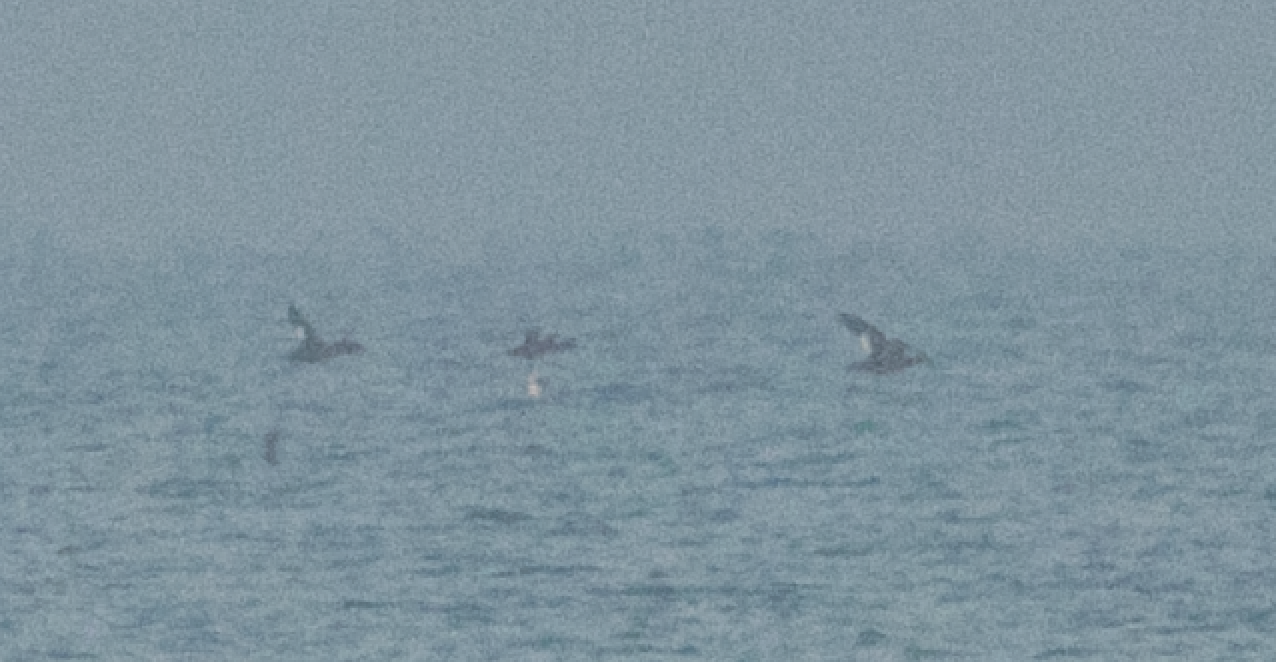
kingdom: Animalia
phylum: Chordata
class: Aves
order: Anseriformes
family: Anatidae
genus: Melanitta
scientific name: Melanitta fusca
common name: Velvet scoter
